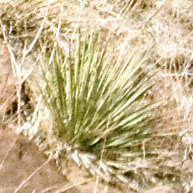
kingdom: Plantae
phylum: Tracheophyta
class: Liliopsida
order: Asparagales
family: Asparagaceae
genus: Yucca
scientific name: Yucca glauca
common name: Great plains yucca
